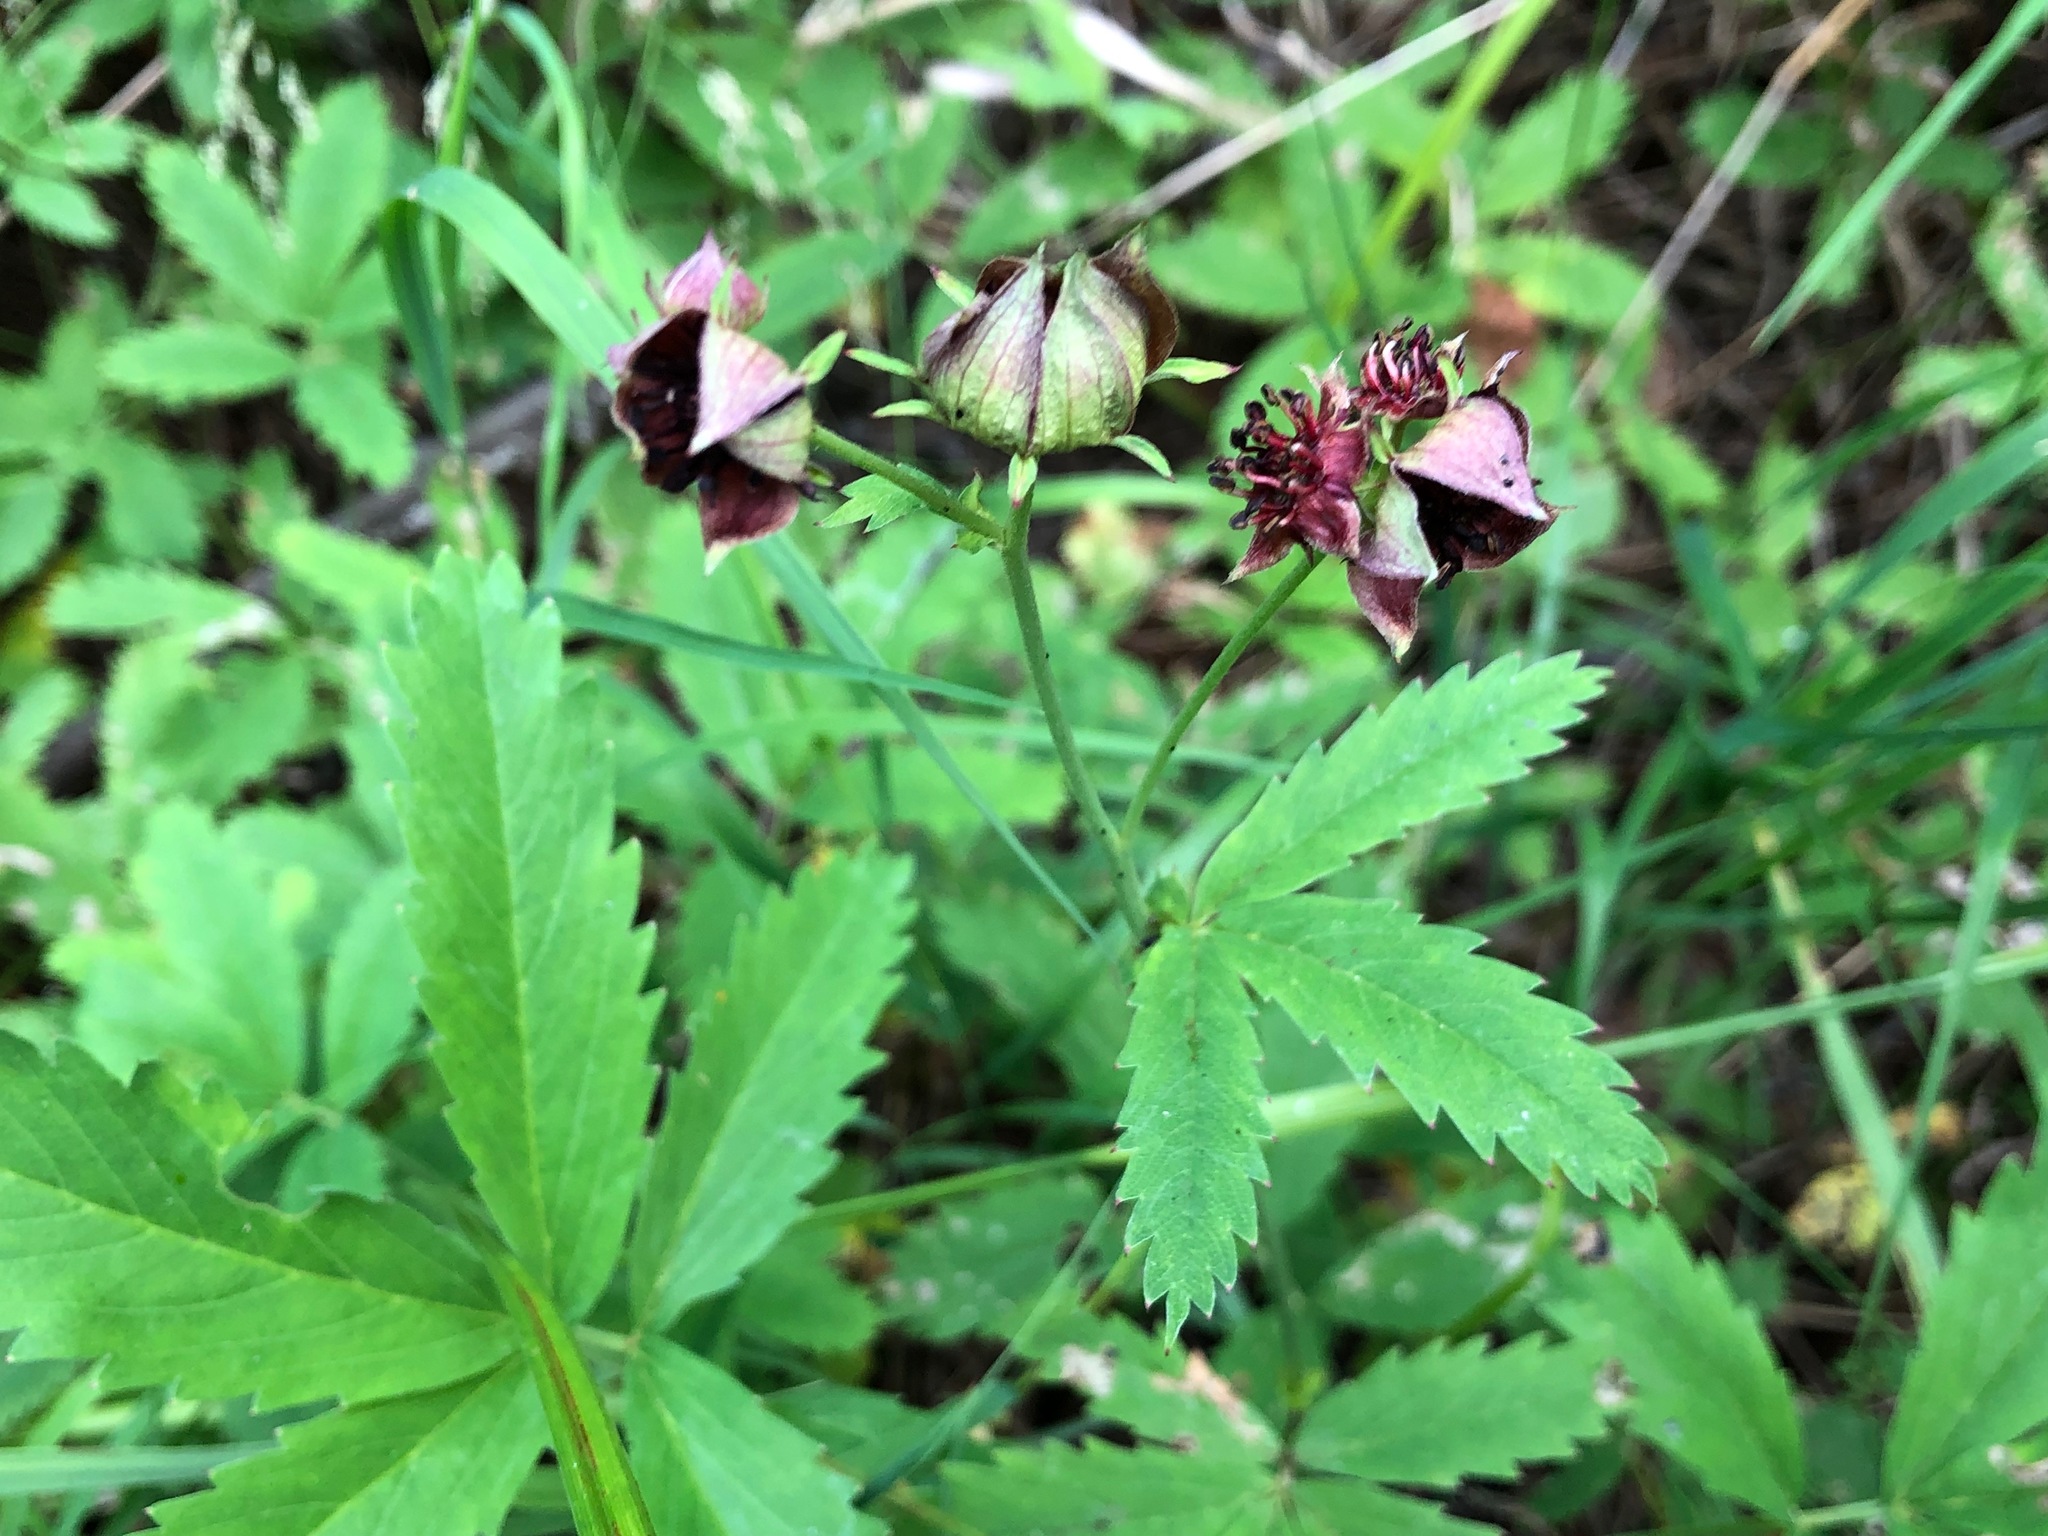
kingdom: Plantae
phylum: Tracheophyta
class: Magnoliopsida
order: Rosales
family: Rosaceae
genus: Comarum
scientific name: Comarum palustre
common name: Marsh cinquefoil
